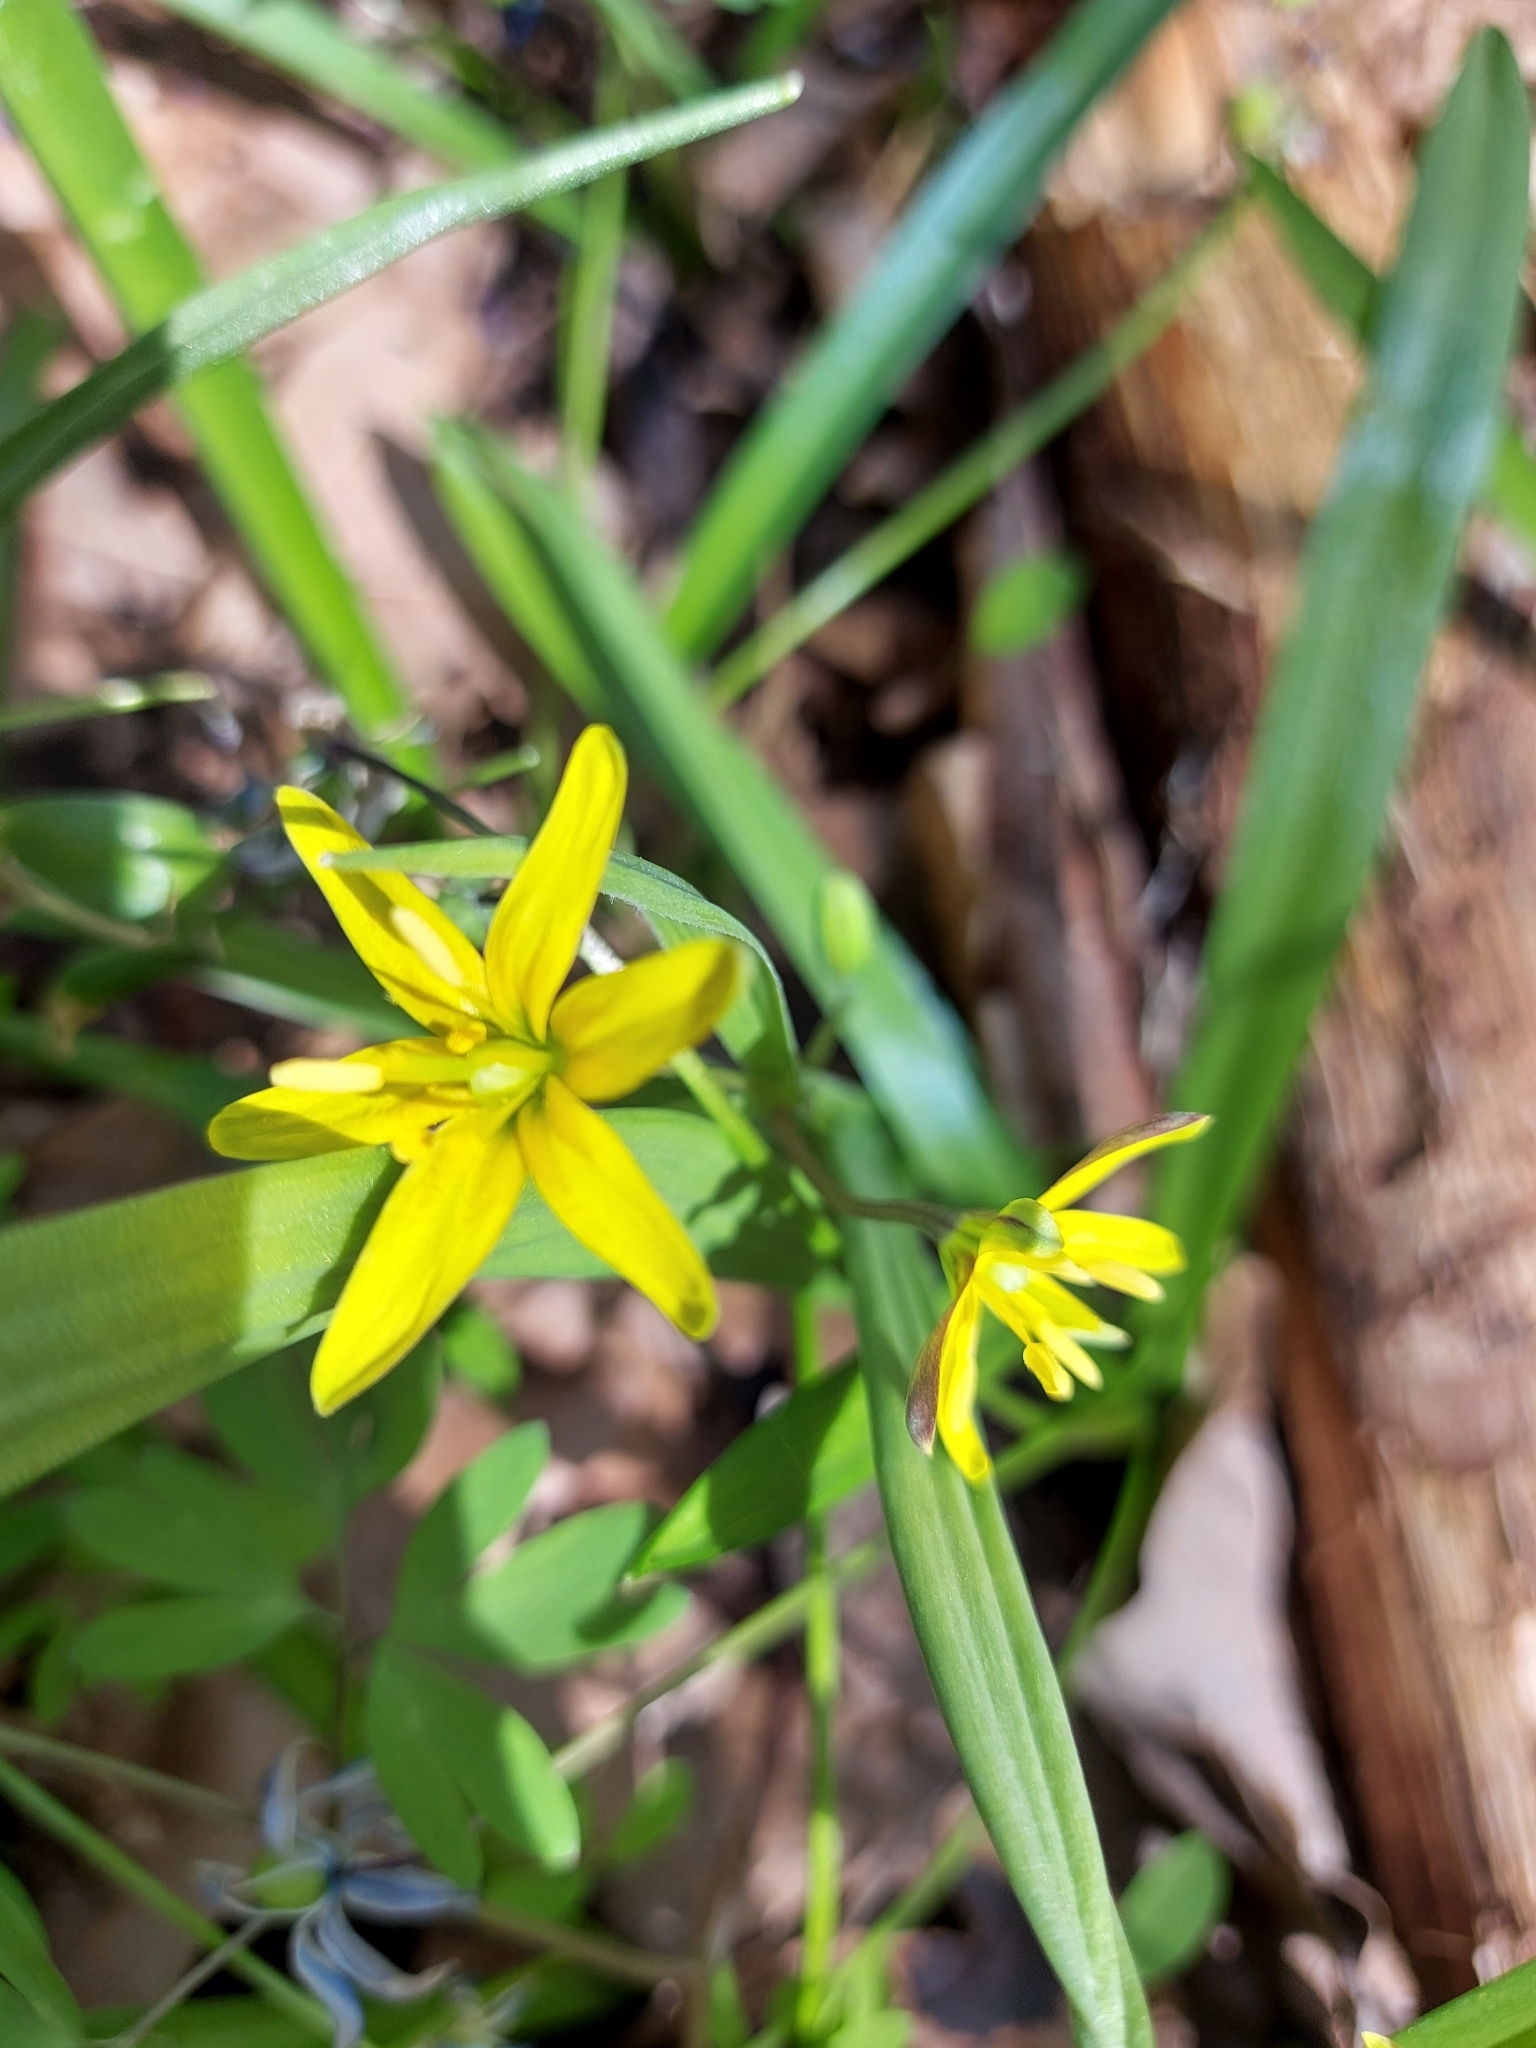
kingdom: Plantae
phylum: Tracheophyta
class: Liliopsida
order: Liliales
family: Liliaceae
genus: Gagea
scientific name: Gagea lutea
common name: Yellow star-of-bethlehem
